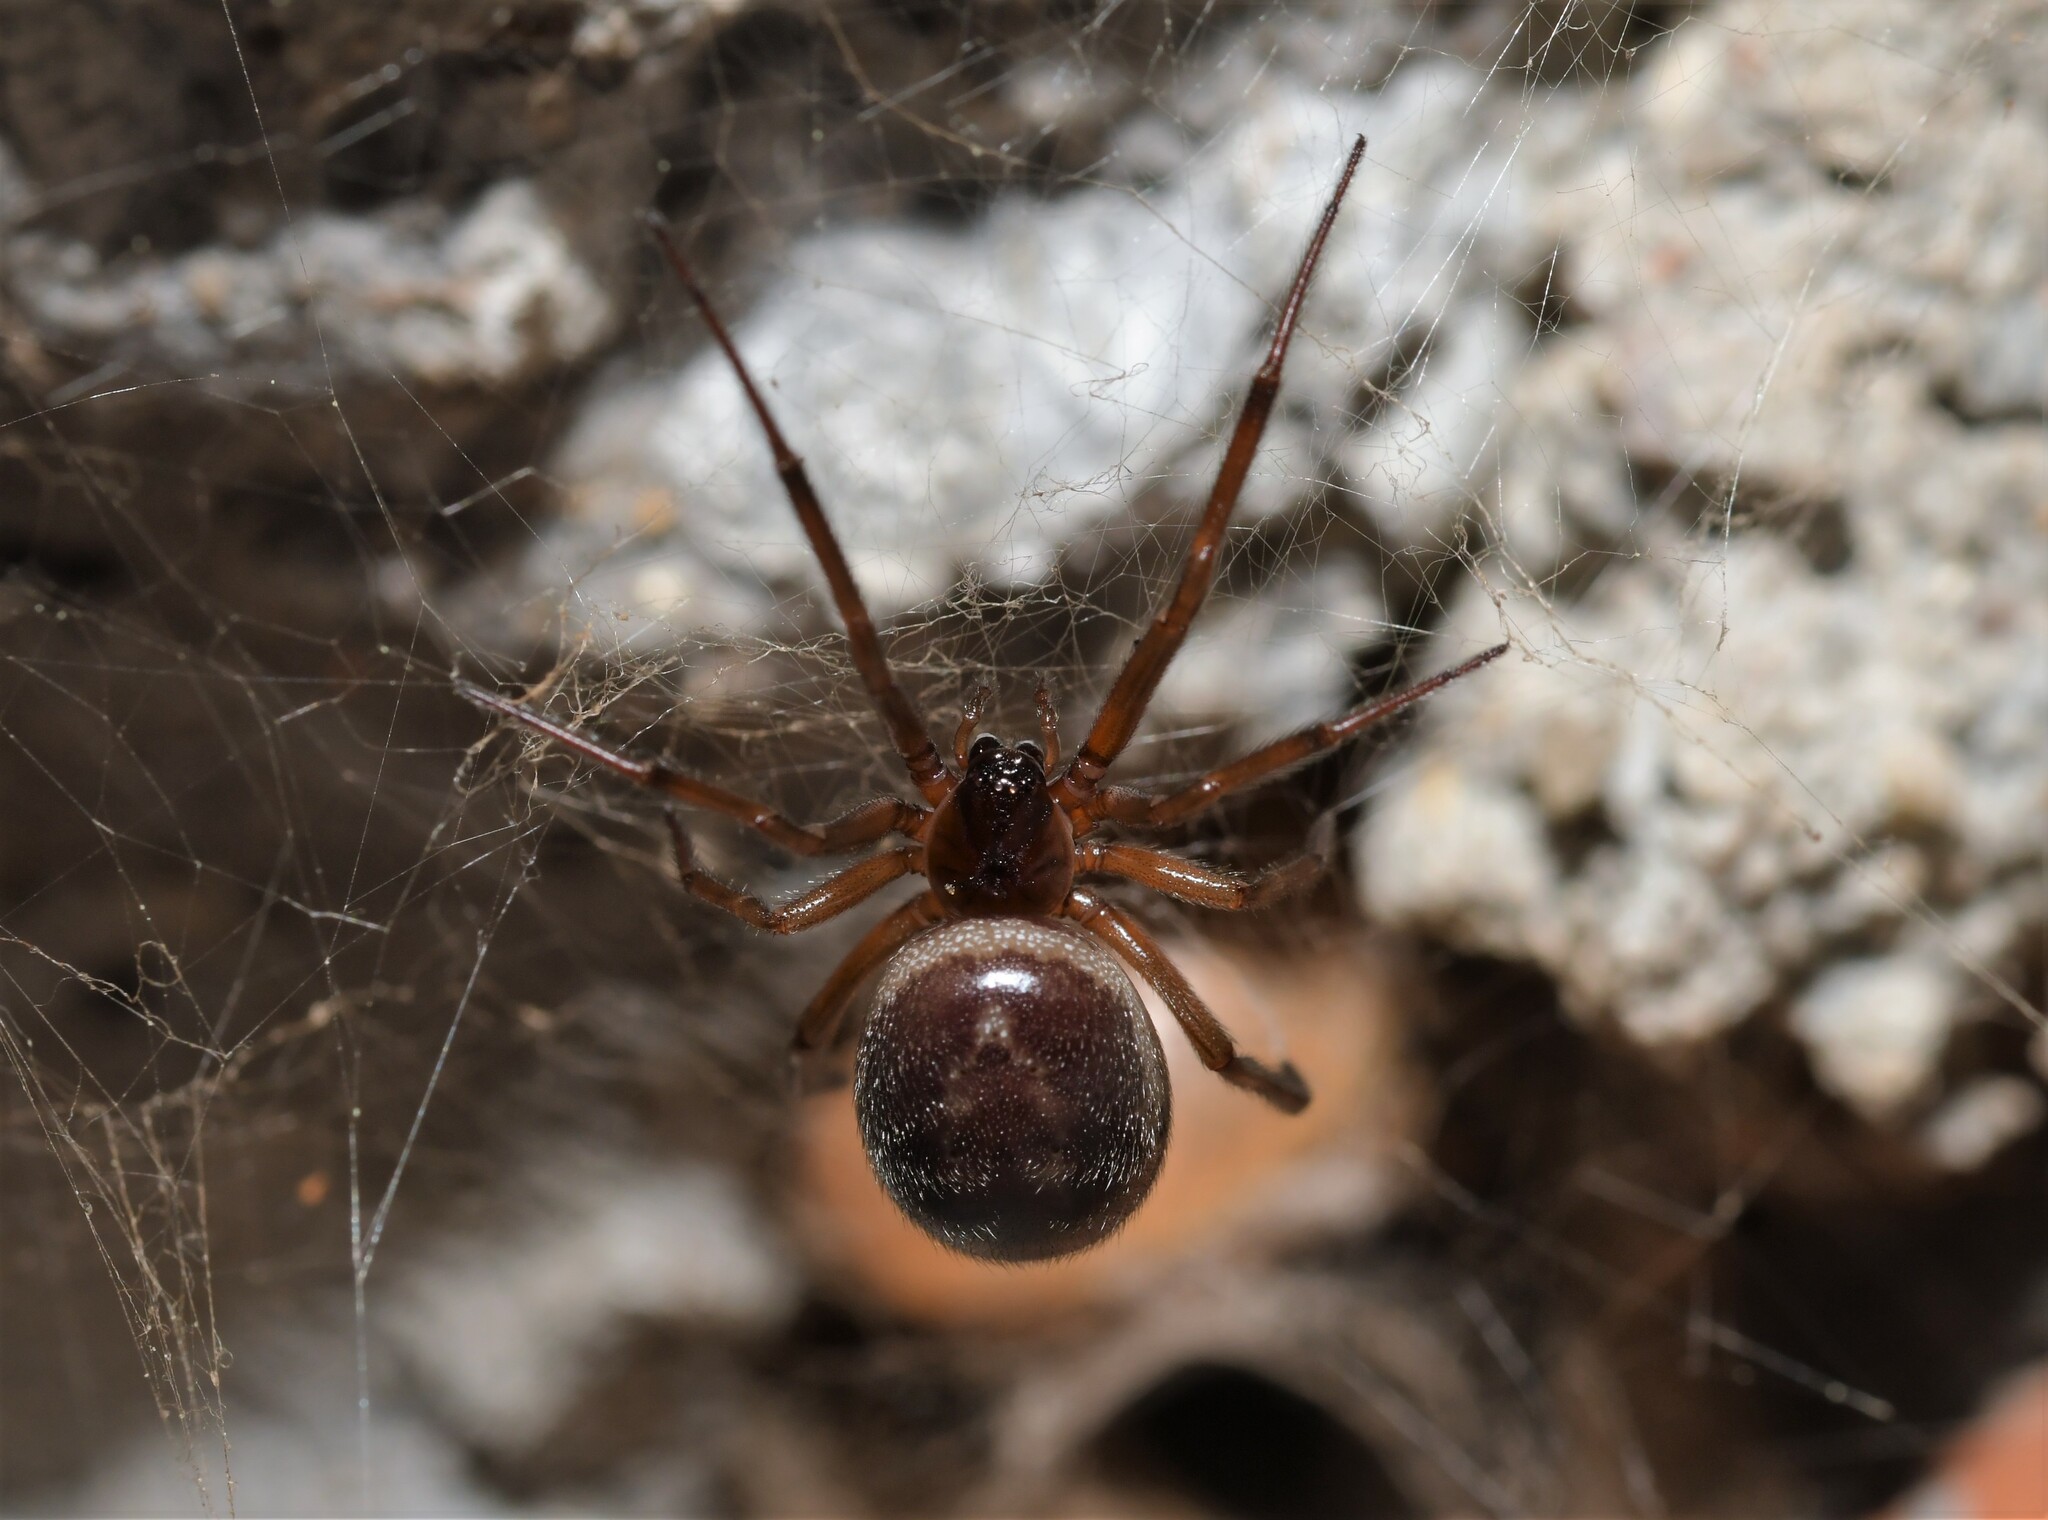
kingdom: Animalia
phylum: Arthropoda
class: Arachnida
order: Araneae
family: Theridiidae
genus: Steatoda
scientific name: Steatoda nobilis
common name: Cobweb weaver
